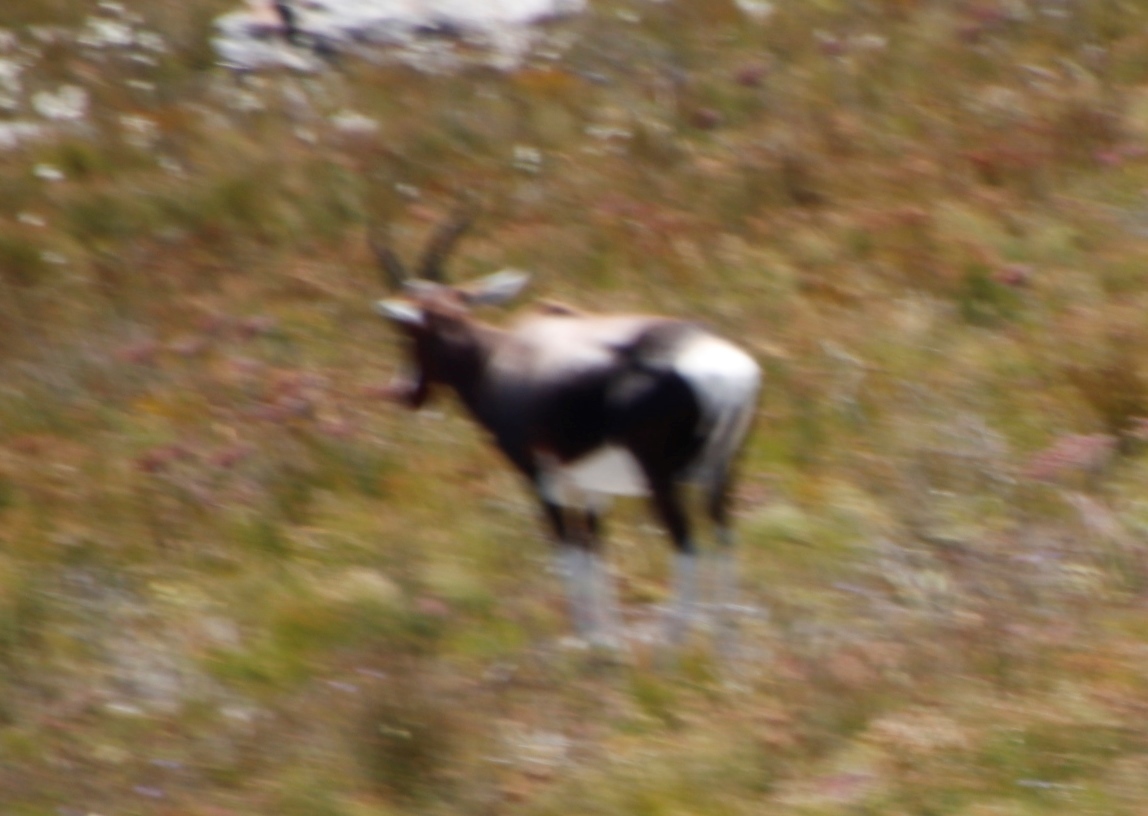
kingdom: Animalia
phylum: Chordata
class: Mammalia
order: Artiodactyla
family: Bovidae
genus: Damaliscus
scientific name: Damaliscus pygargus
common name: Bontebok
